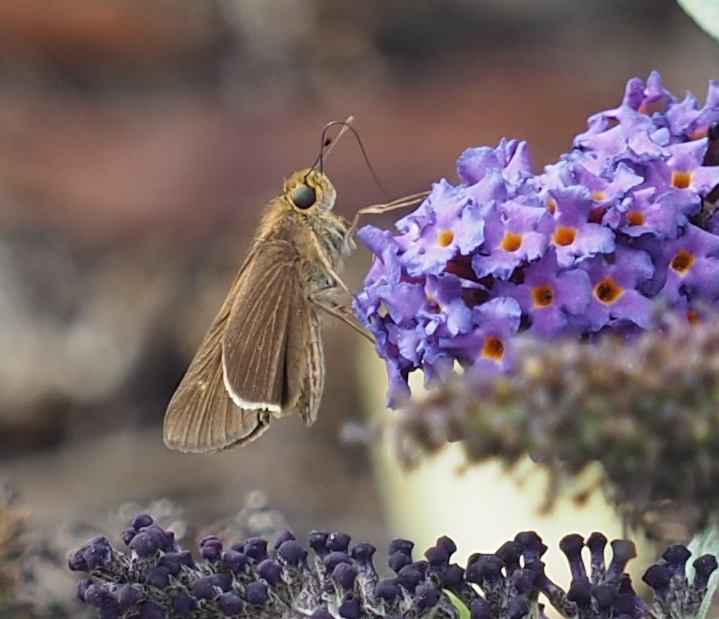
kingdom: Animalia
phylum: Arthropoda
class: Insecta
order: Lepidoptera
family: Hesperiidae
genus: Panoquina
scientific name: Panoquina ocola
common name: Ocola skipper
